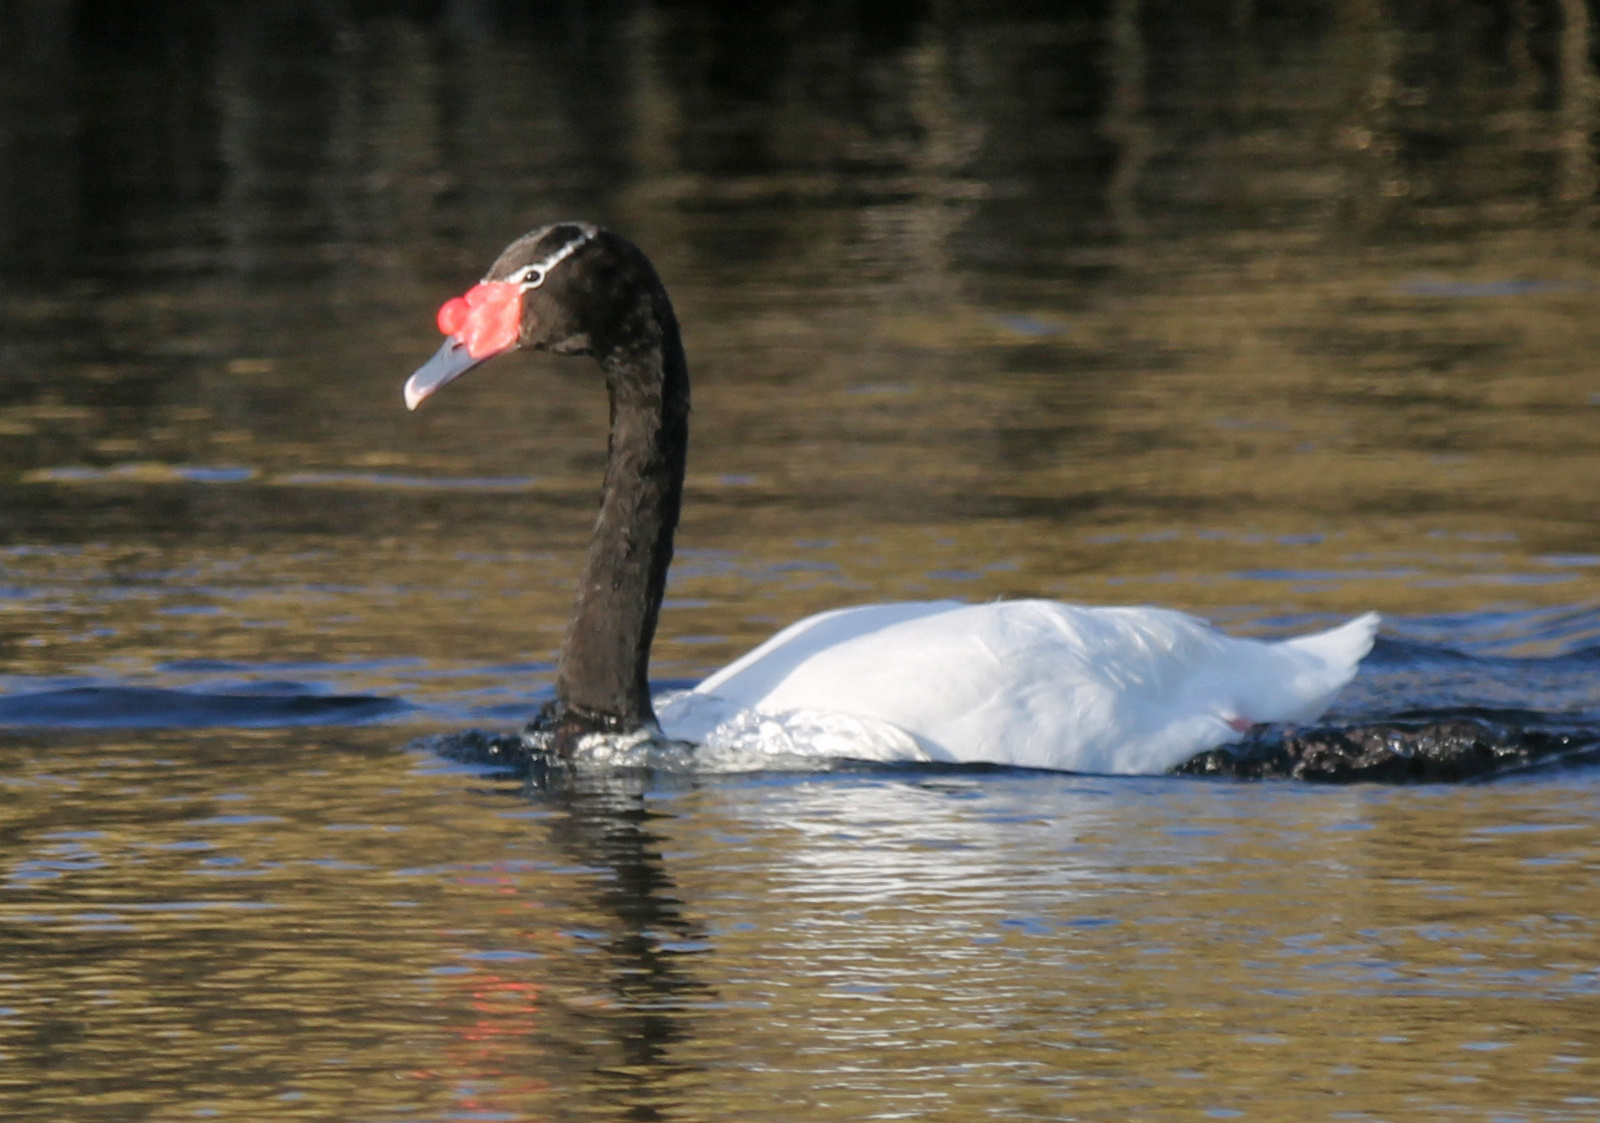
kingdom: Animalia
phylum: Chordata
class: Aves
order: Anseriformes
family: Anatidae
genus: Cygnus
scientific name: Cygnus melancoryphus
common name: Black-necked swan
